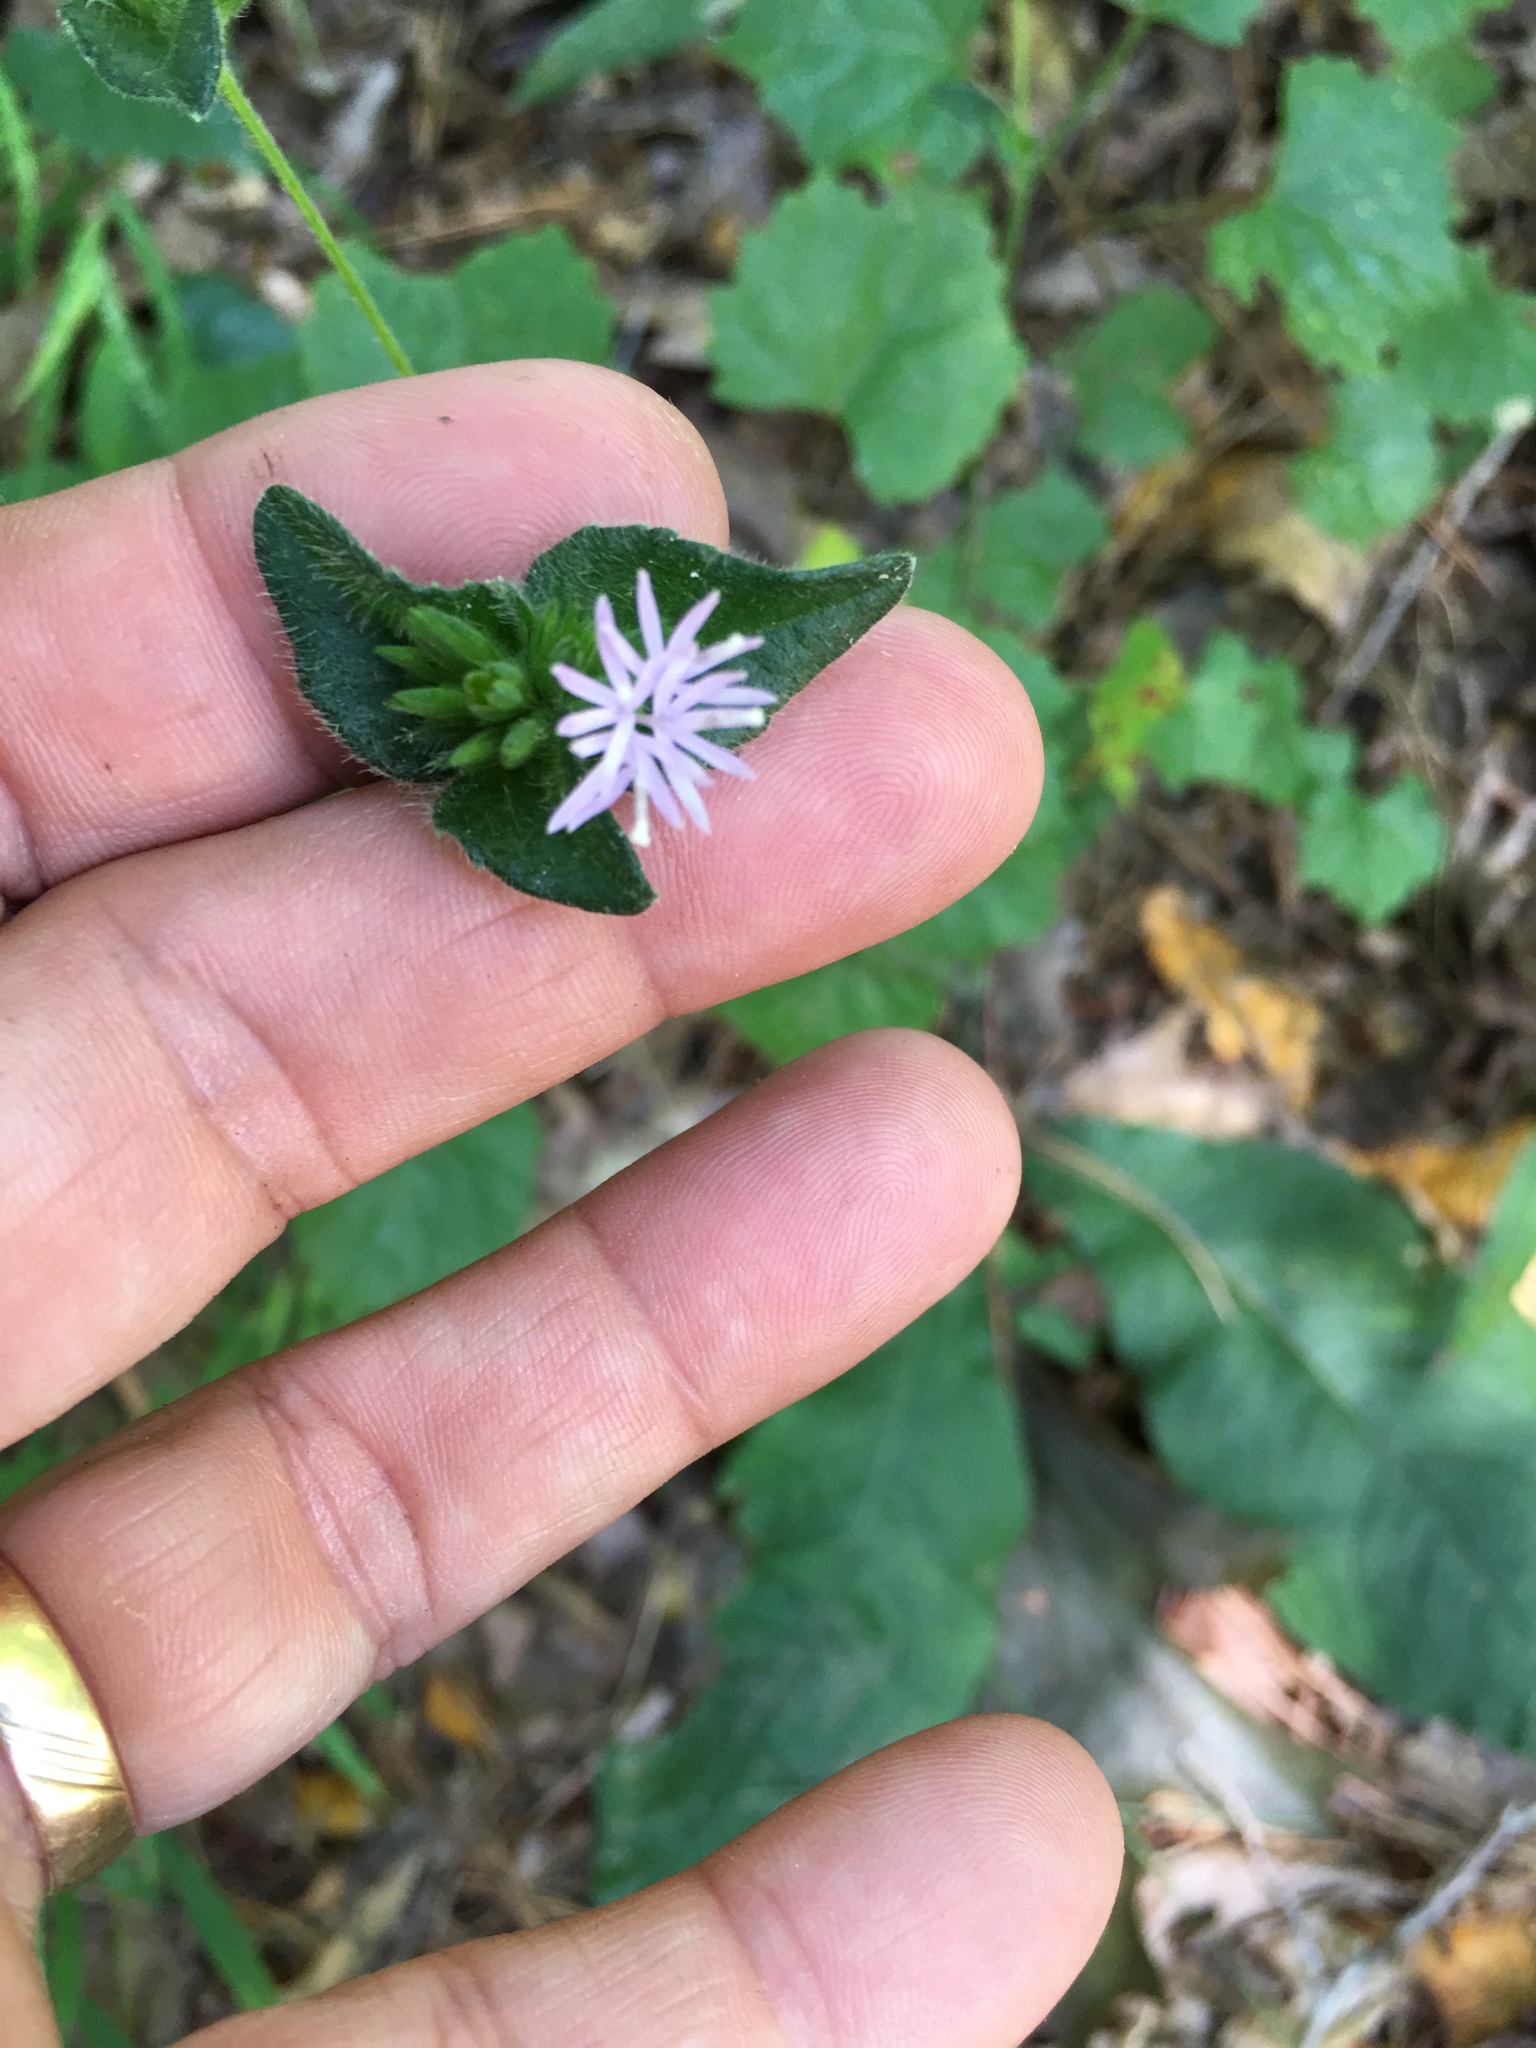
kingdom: Plantae
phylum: Tracheophyta
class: Magnoliopsida
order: Asterales
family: Asteraceae
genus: Elephantopus
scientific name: Elephantopus tomentosus
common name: Tobacco-weed
